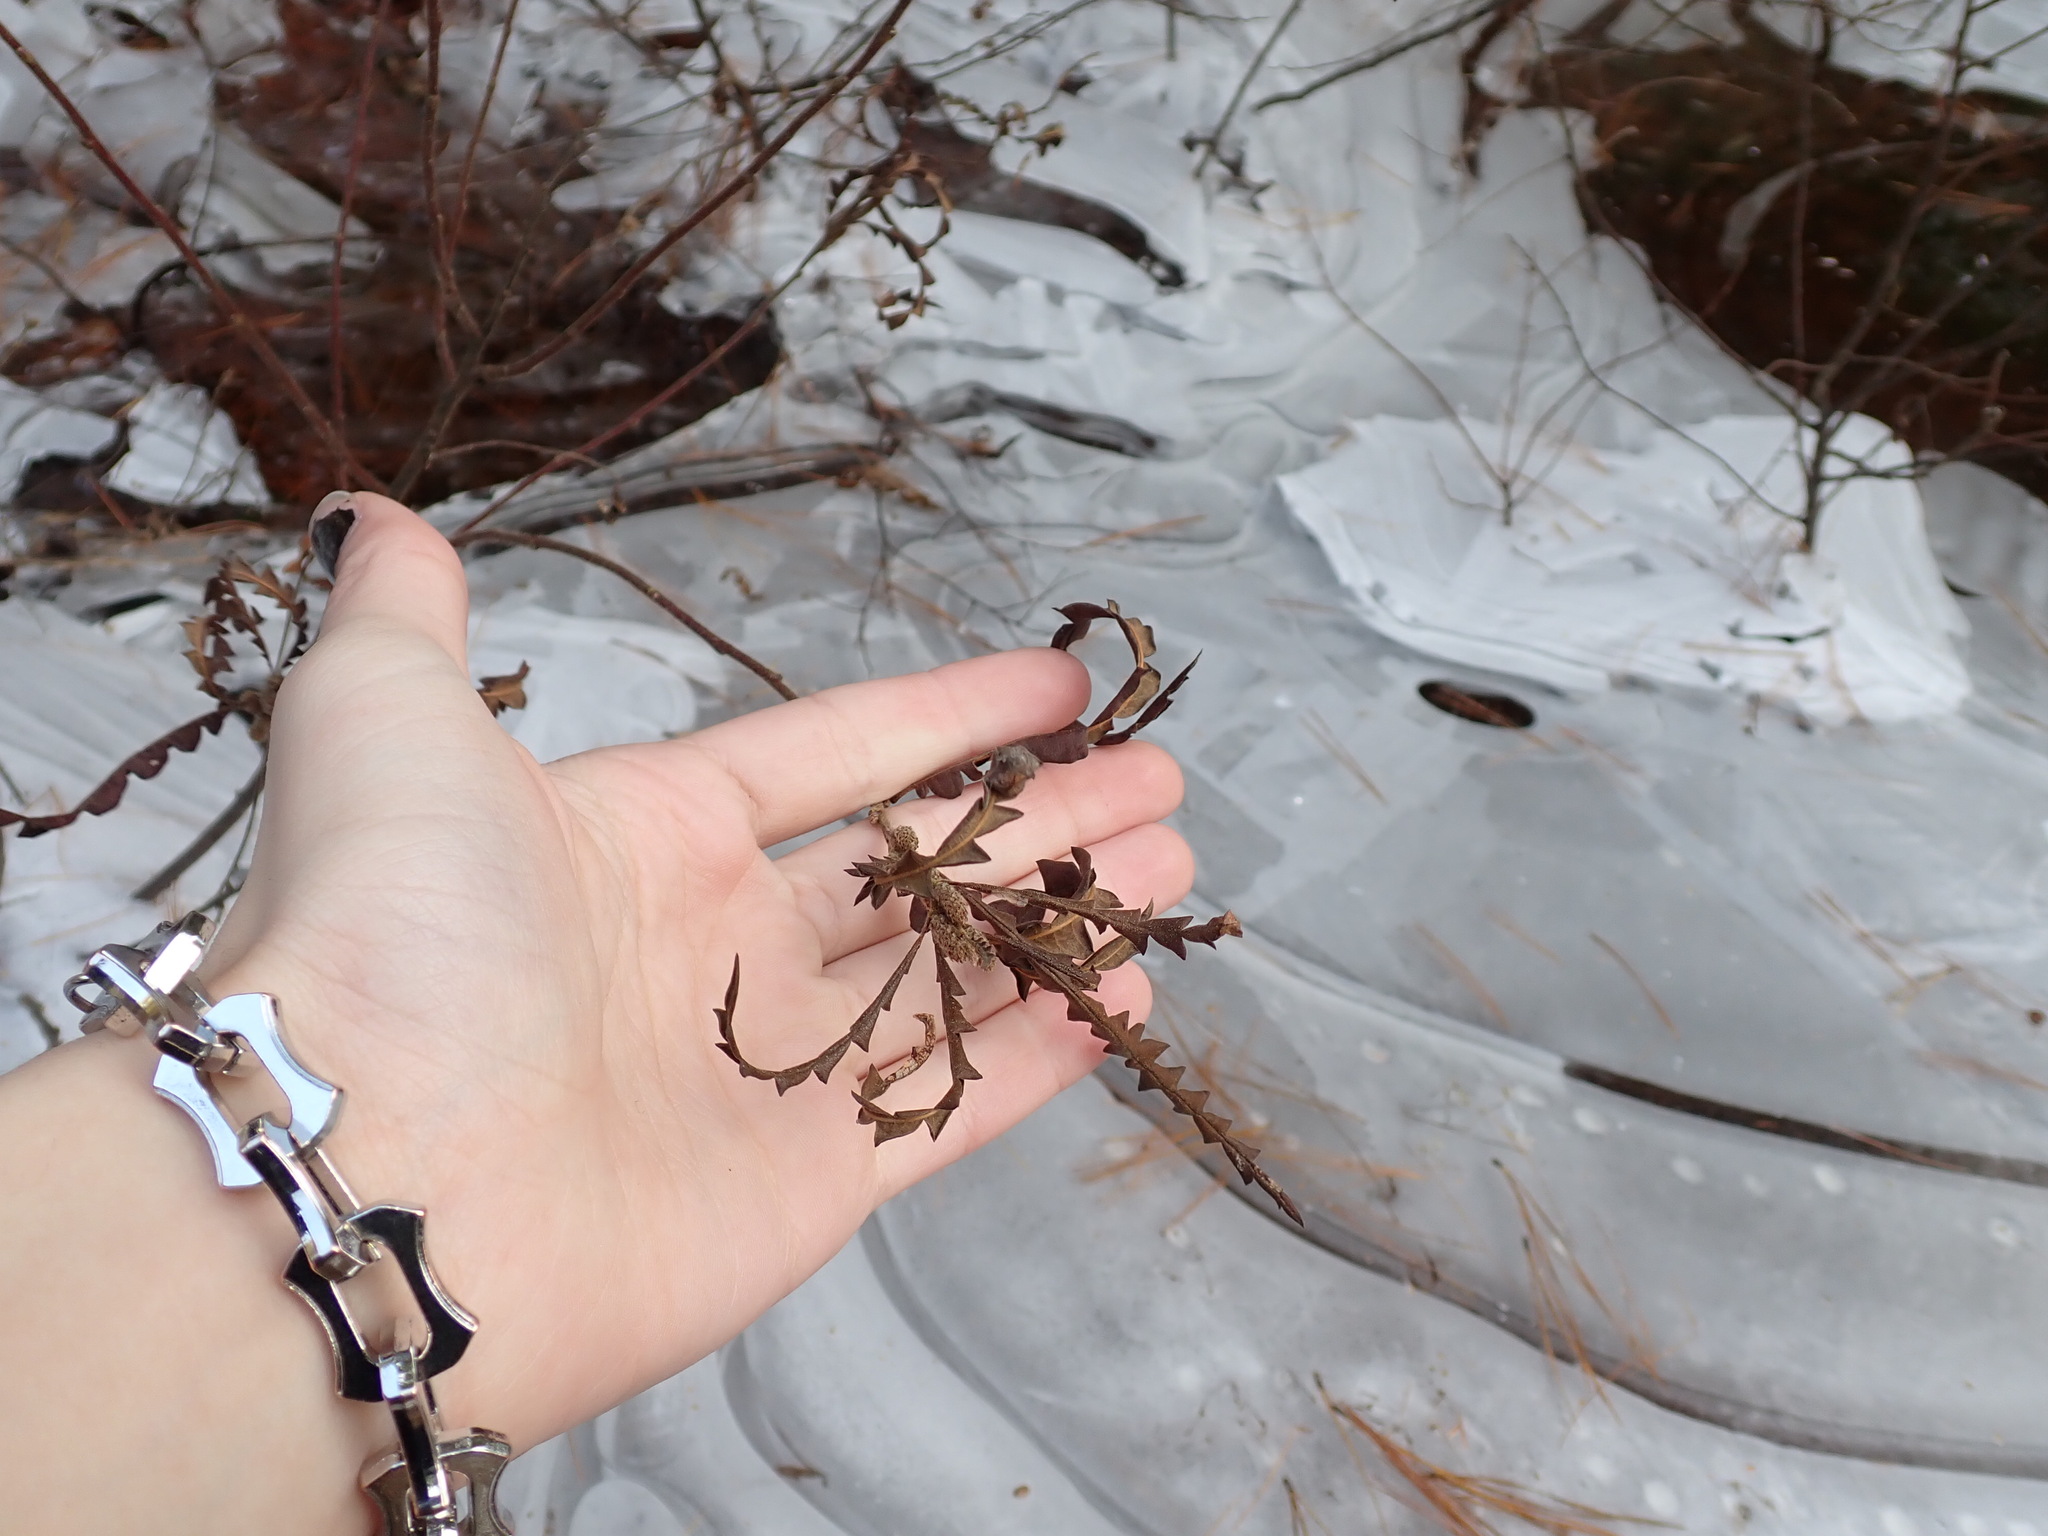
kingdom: Plantae
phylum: Tracheophyta
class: Magnoliopsida
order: Fagales
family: Myricaceae
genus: Comptonia
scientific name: Comptonia peregrina
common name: Sweet-fern
